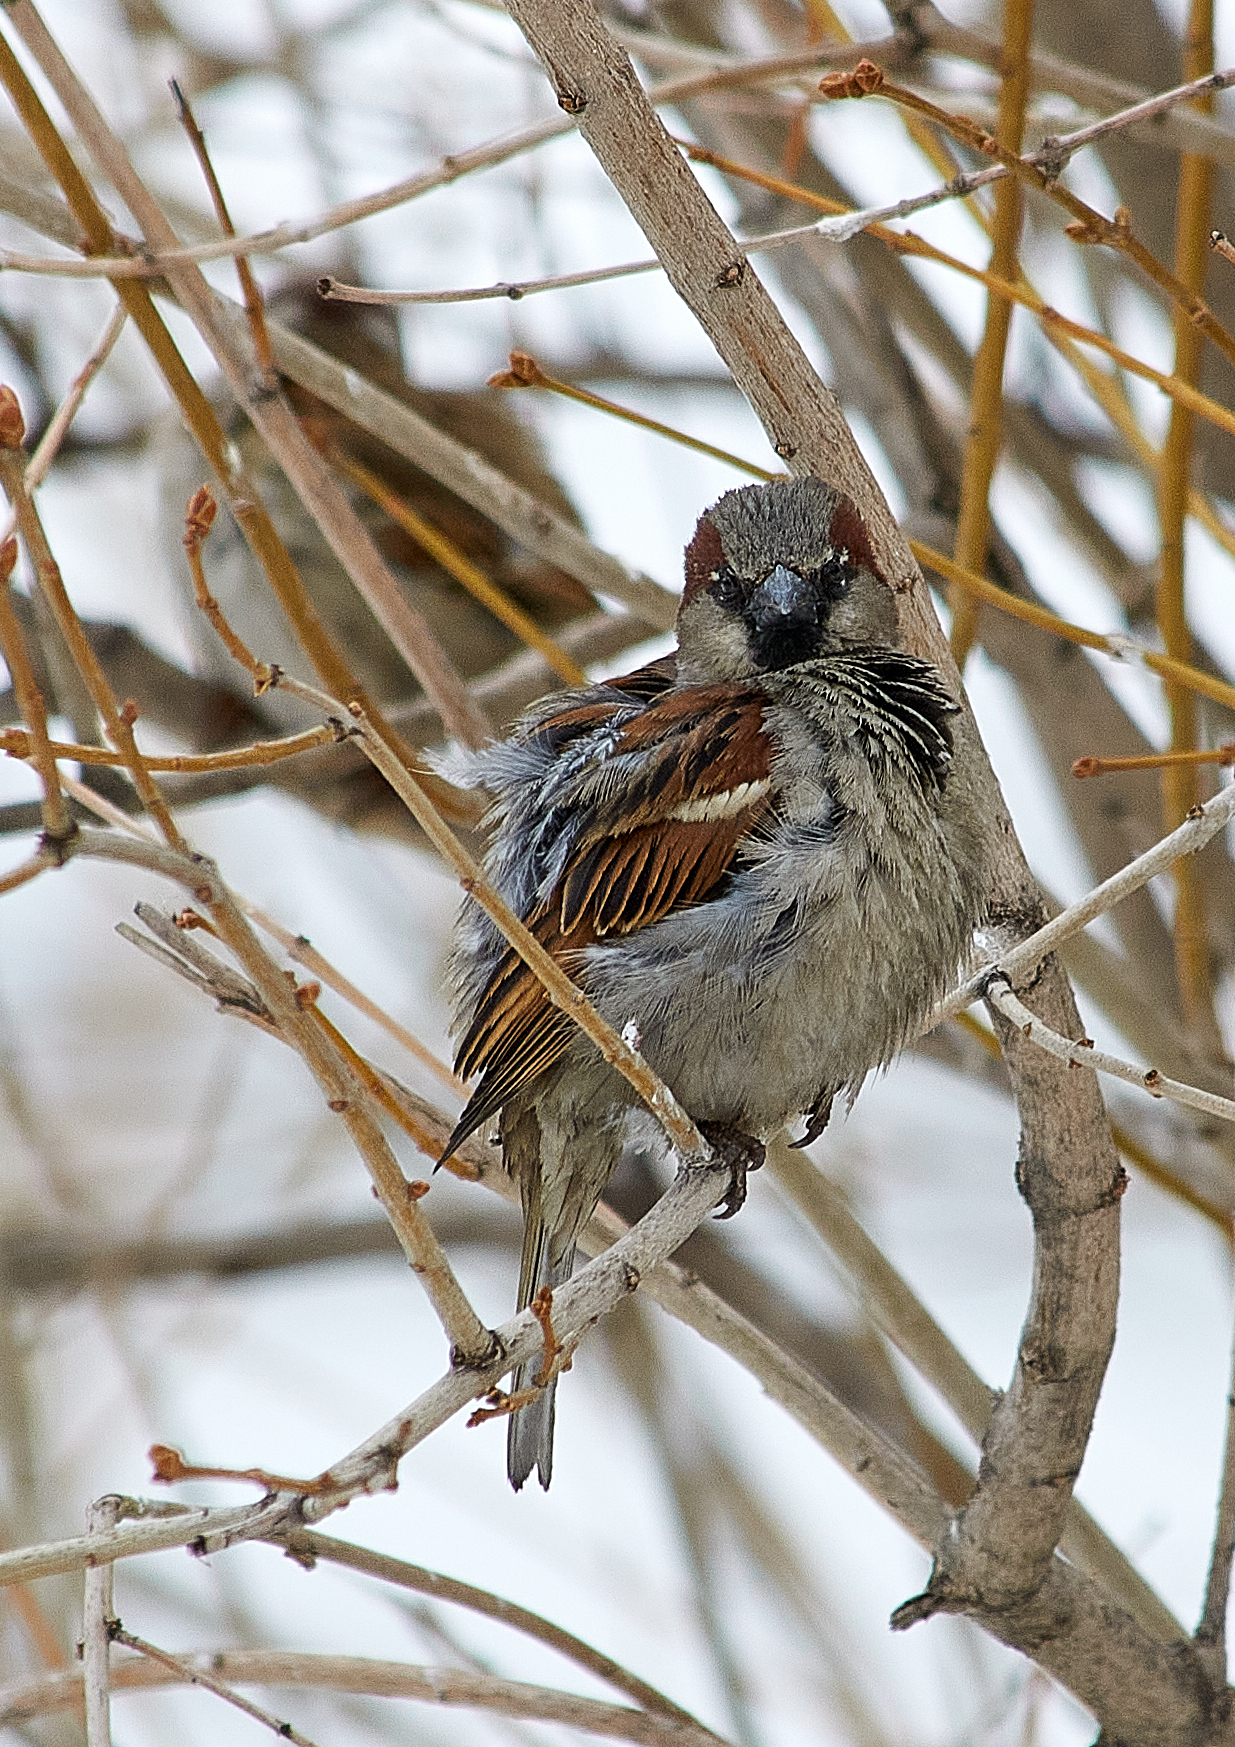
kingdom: Animalia
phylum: Chordata
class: Aves
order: Passeriformes
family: Passeridae
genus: Passer
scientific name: Passer domesticus
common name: House sparrow
